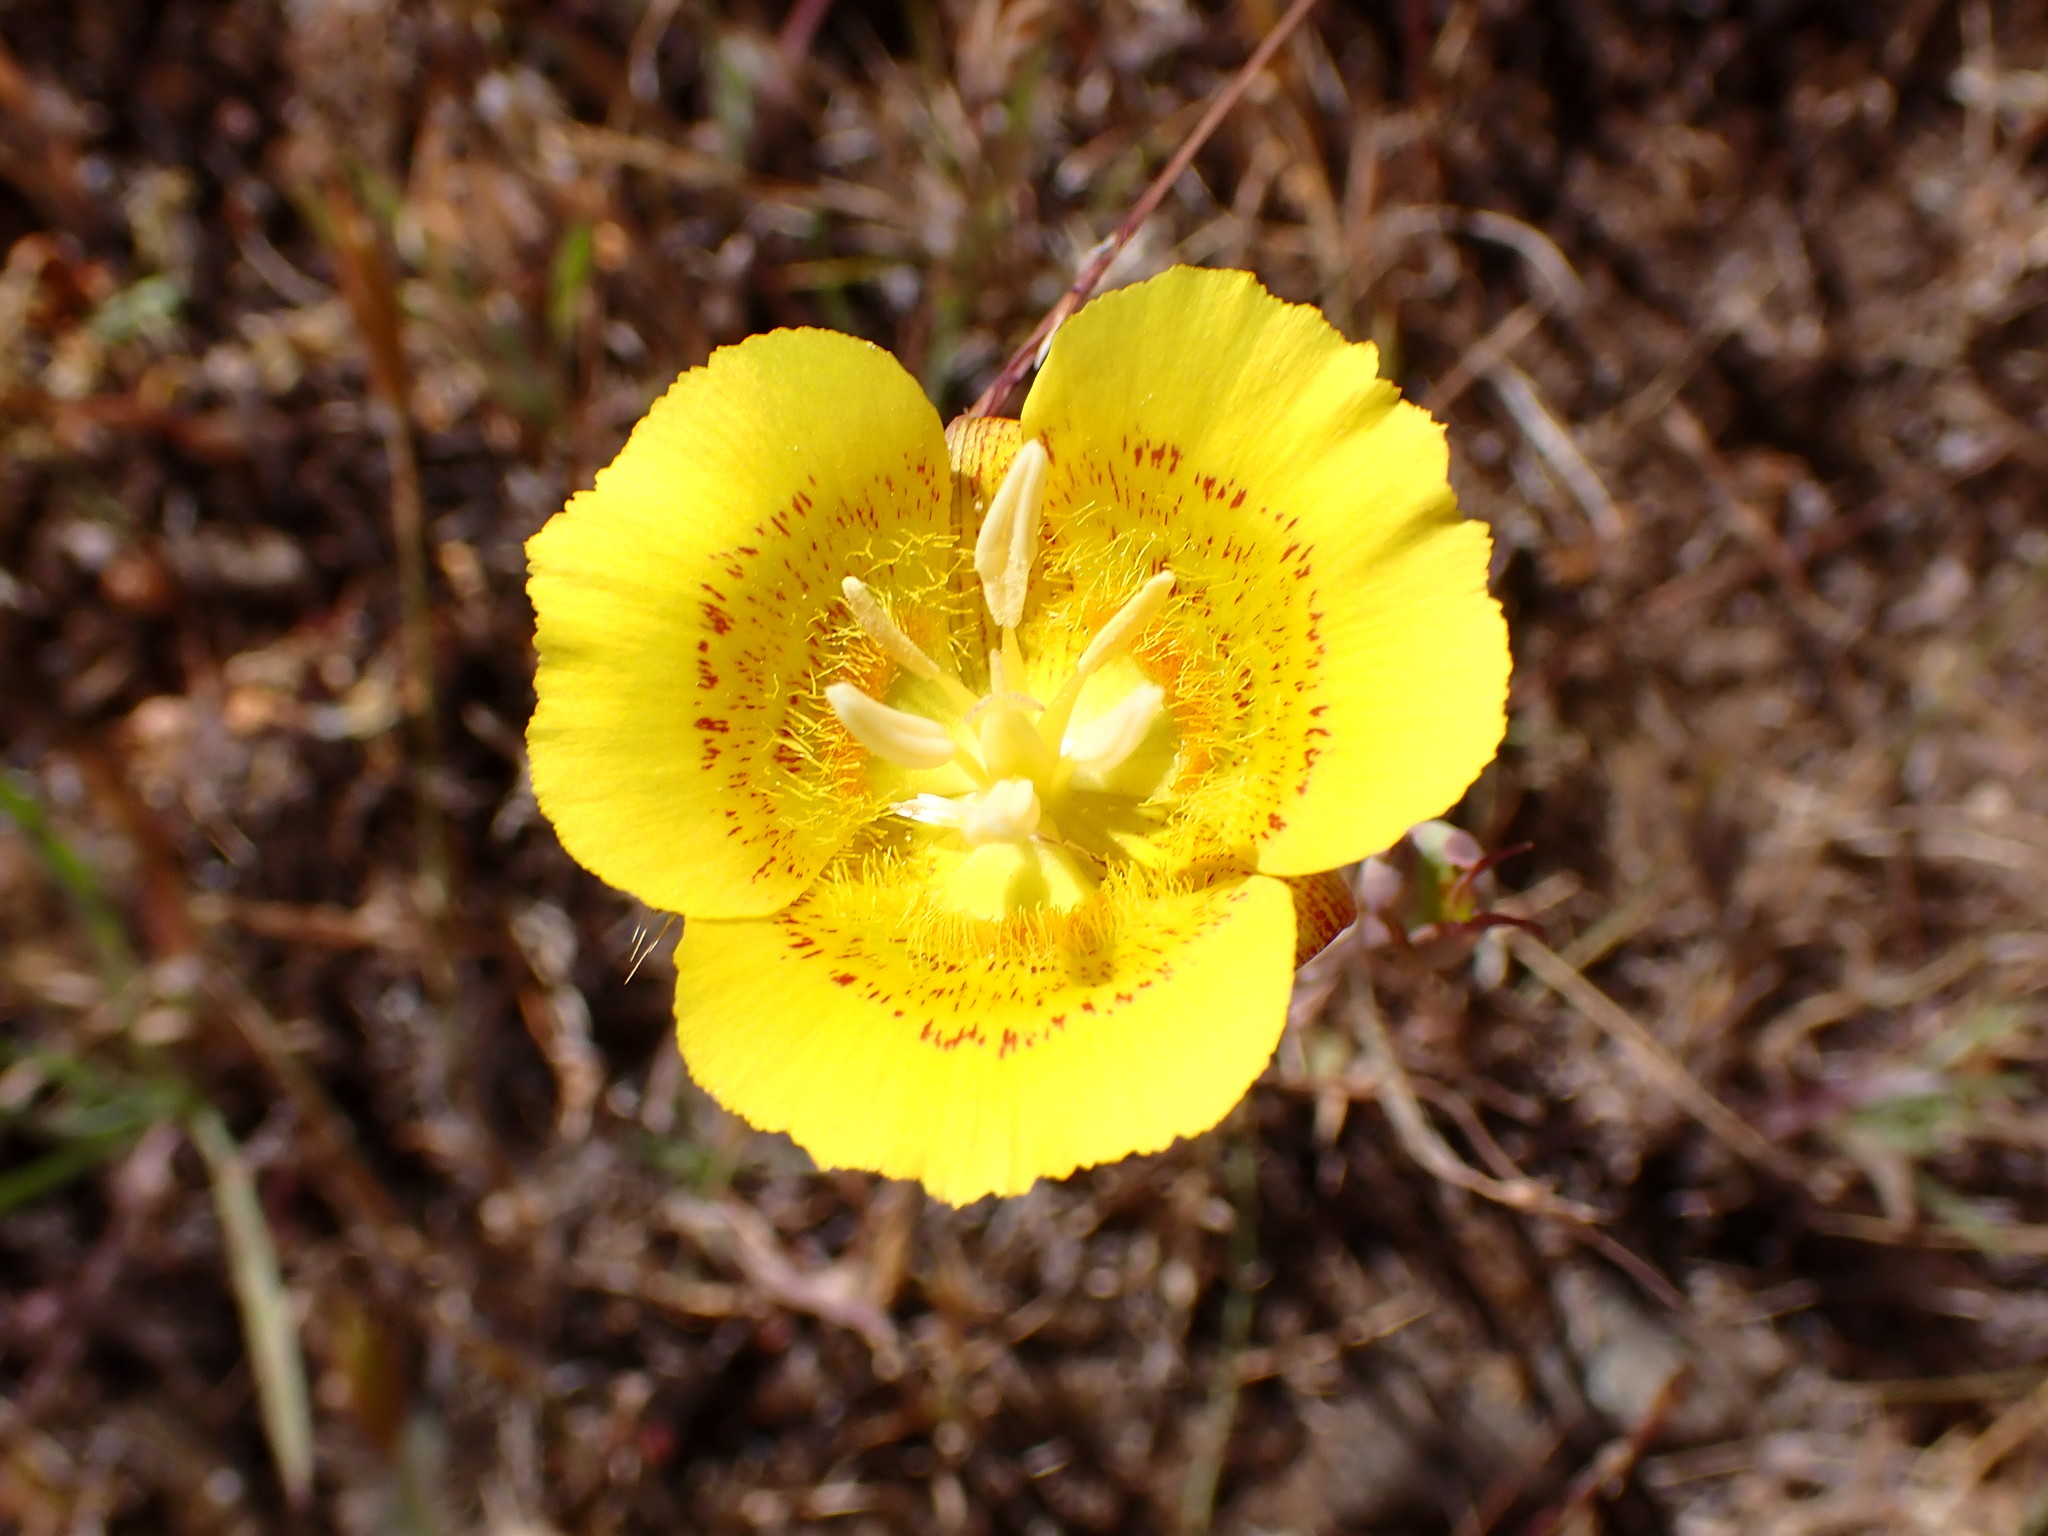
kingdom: Plantae
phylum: Tracheophyta
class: Liliopsida
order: Liliales
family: Liliaceae
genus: Calochortus
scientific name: Calochortus luteus
